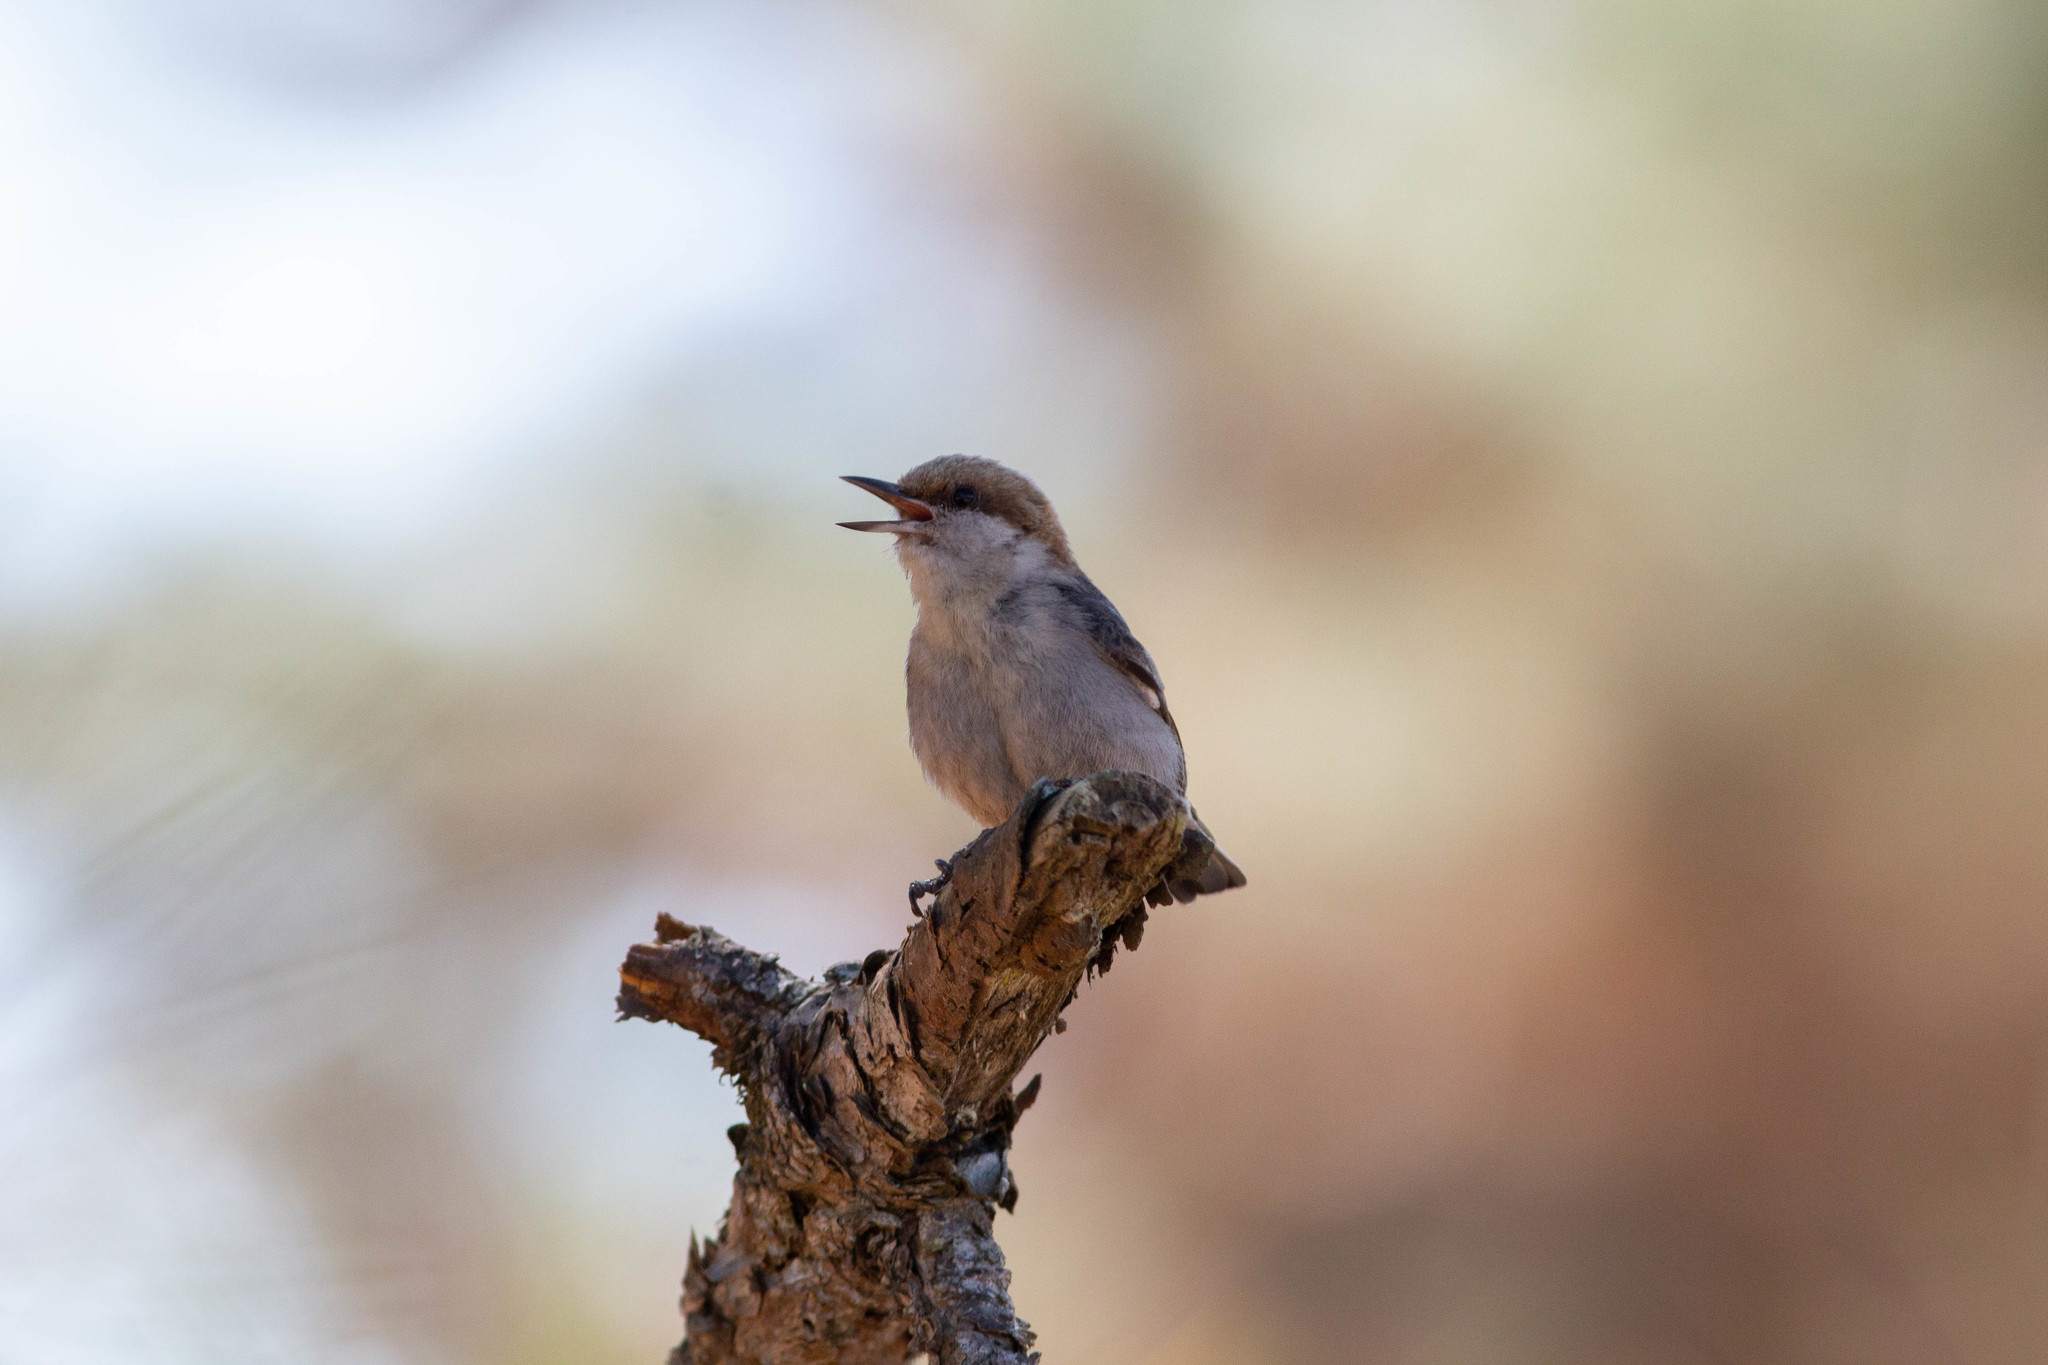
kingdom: Animalia
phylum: Chordata
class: Aves
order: Passeriformes
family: Sittidae
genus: Sitta
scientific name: Sitta pusilla
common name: Brown-headed nuthatch
